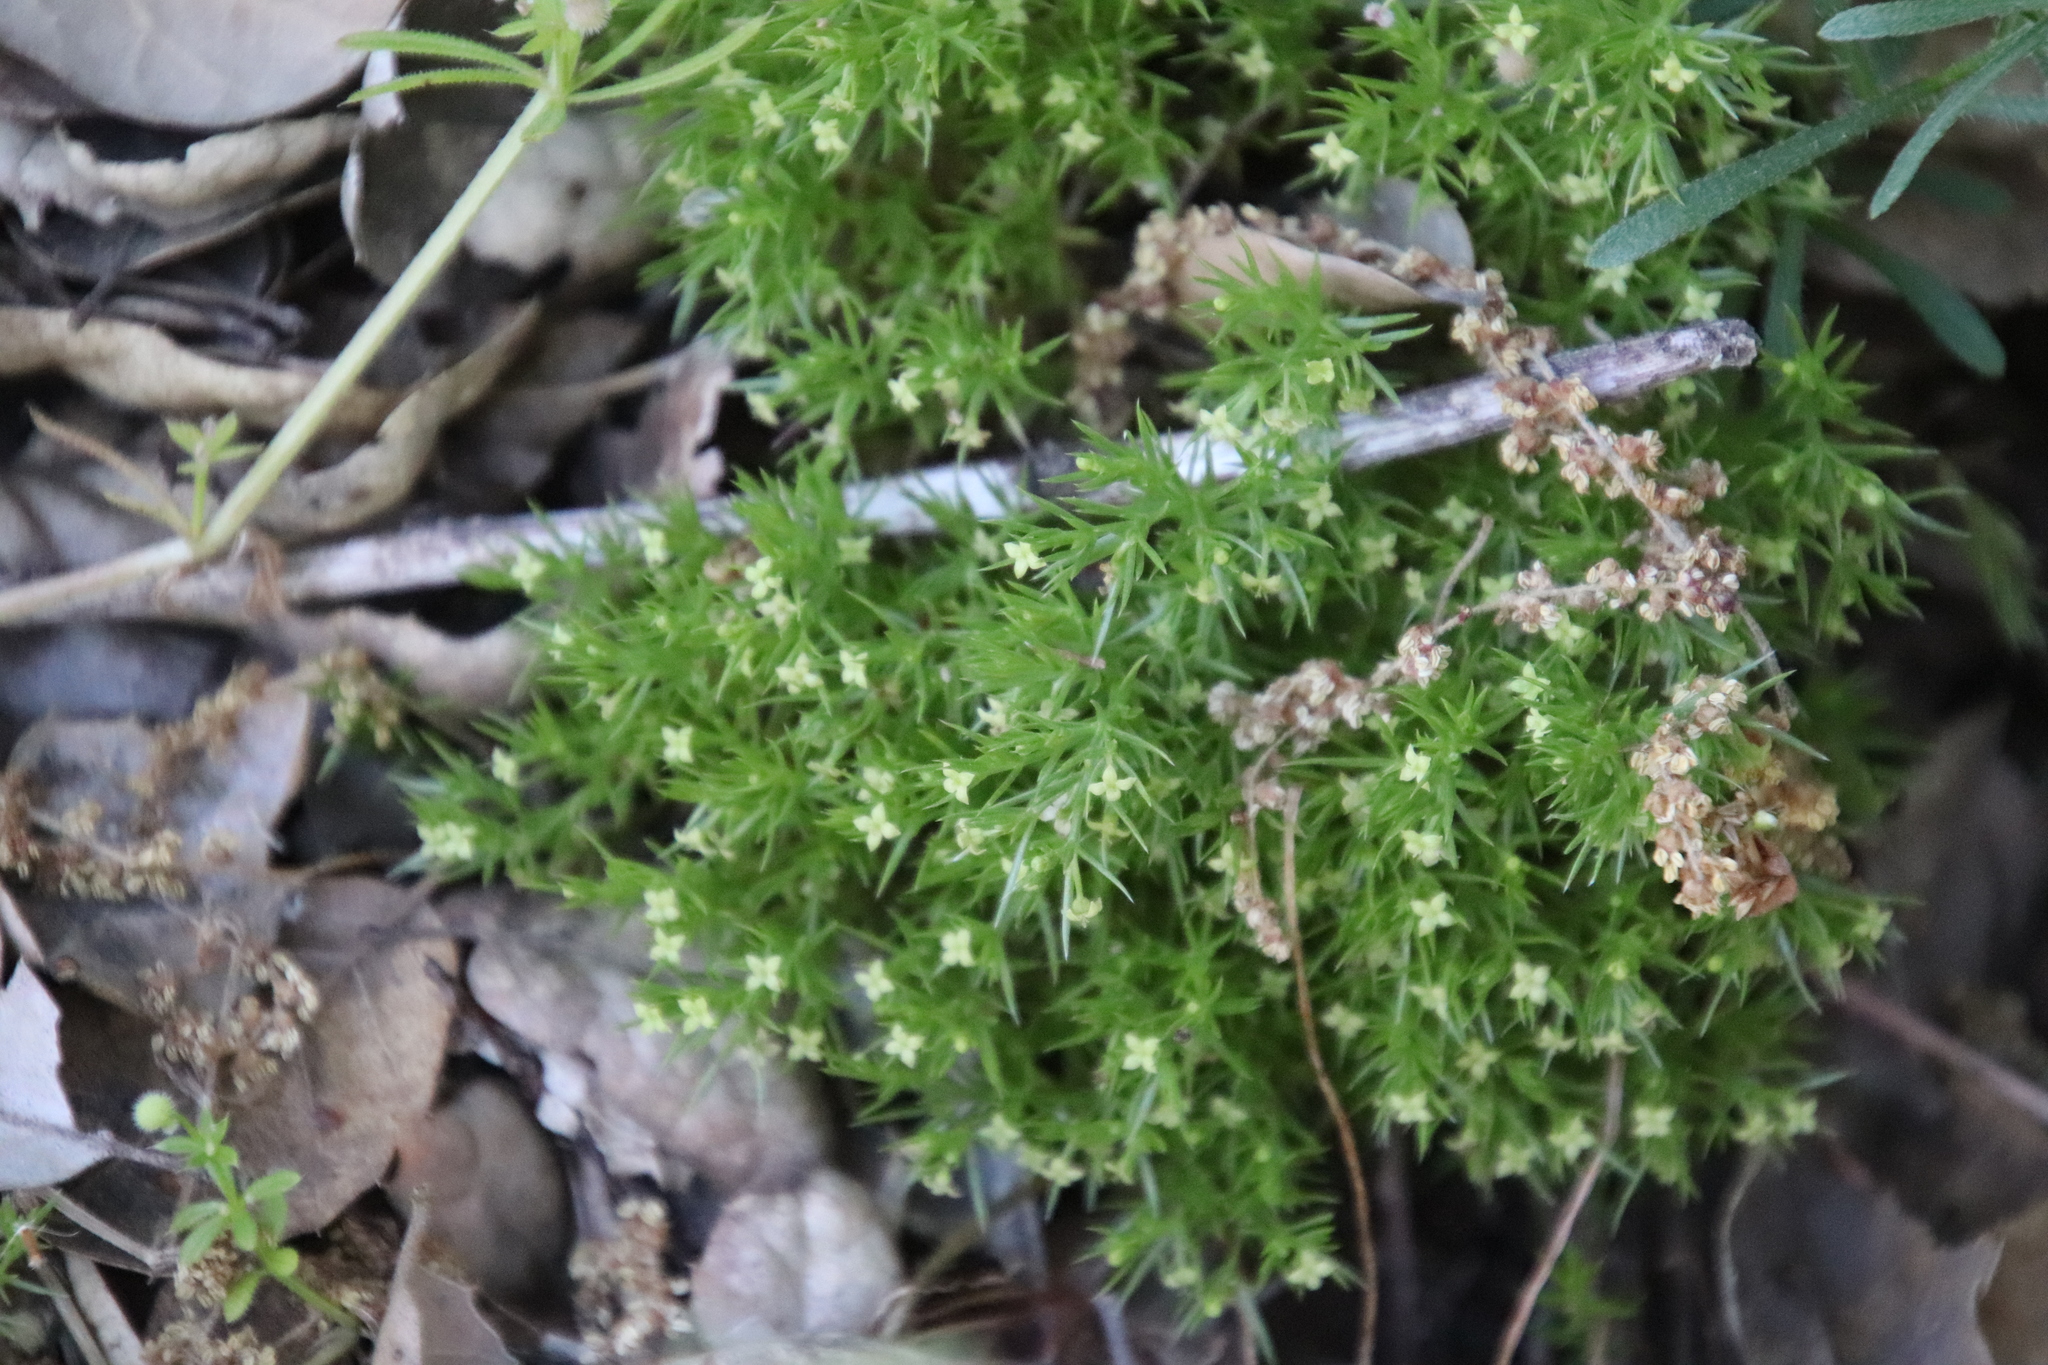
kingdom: Plantae
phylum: Tracheophyta
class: Magnoliopsida
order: Gentianales
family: Rubiaceae
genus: Galium
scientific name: Galium andrewsii
